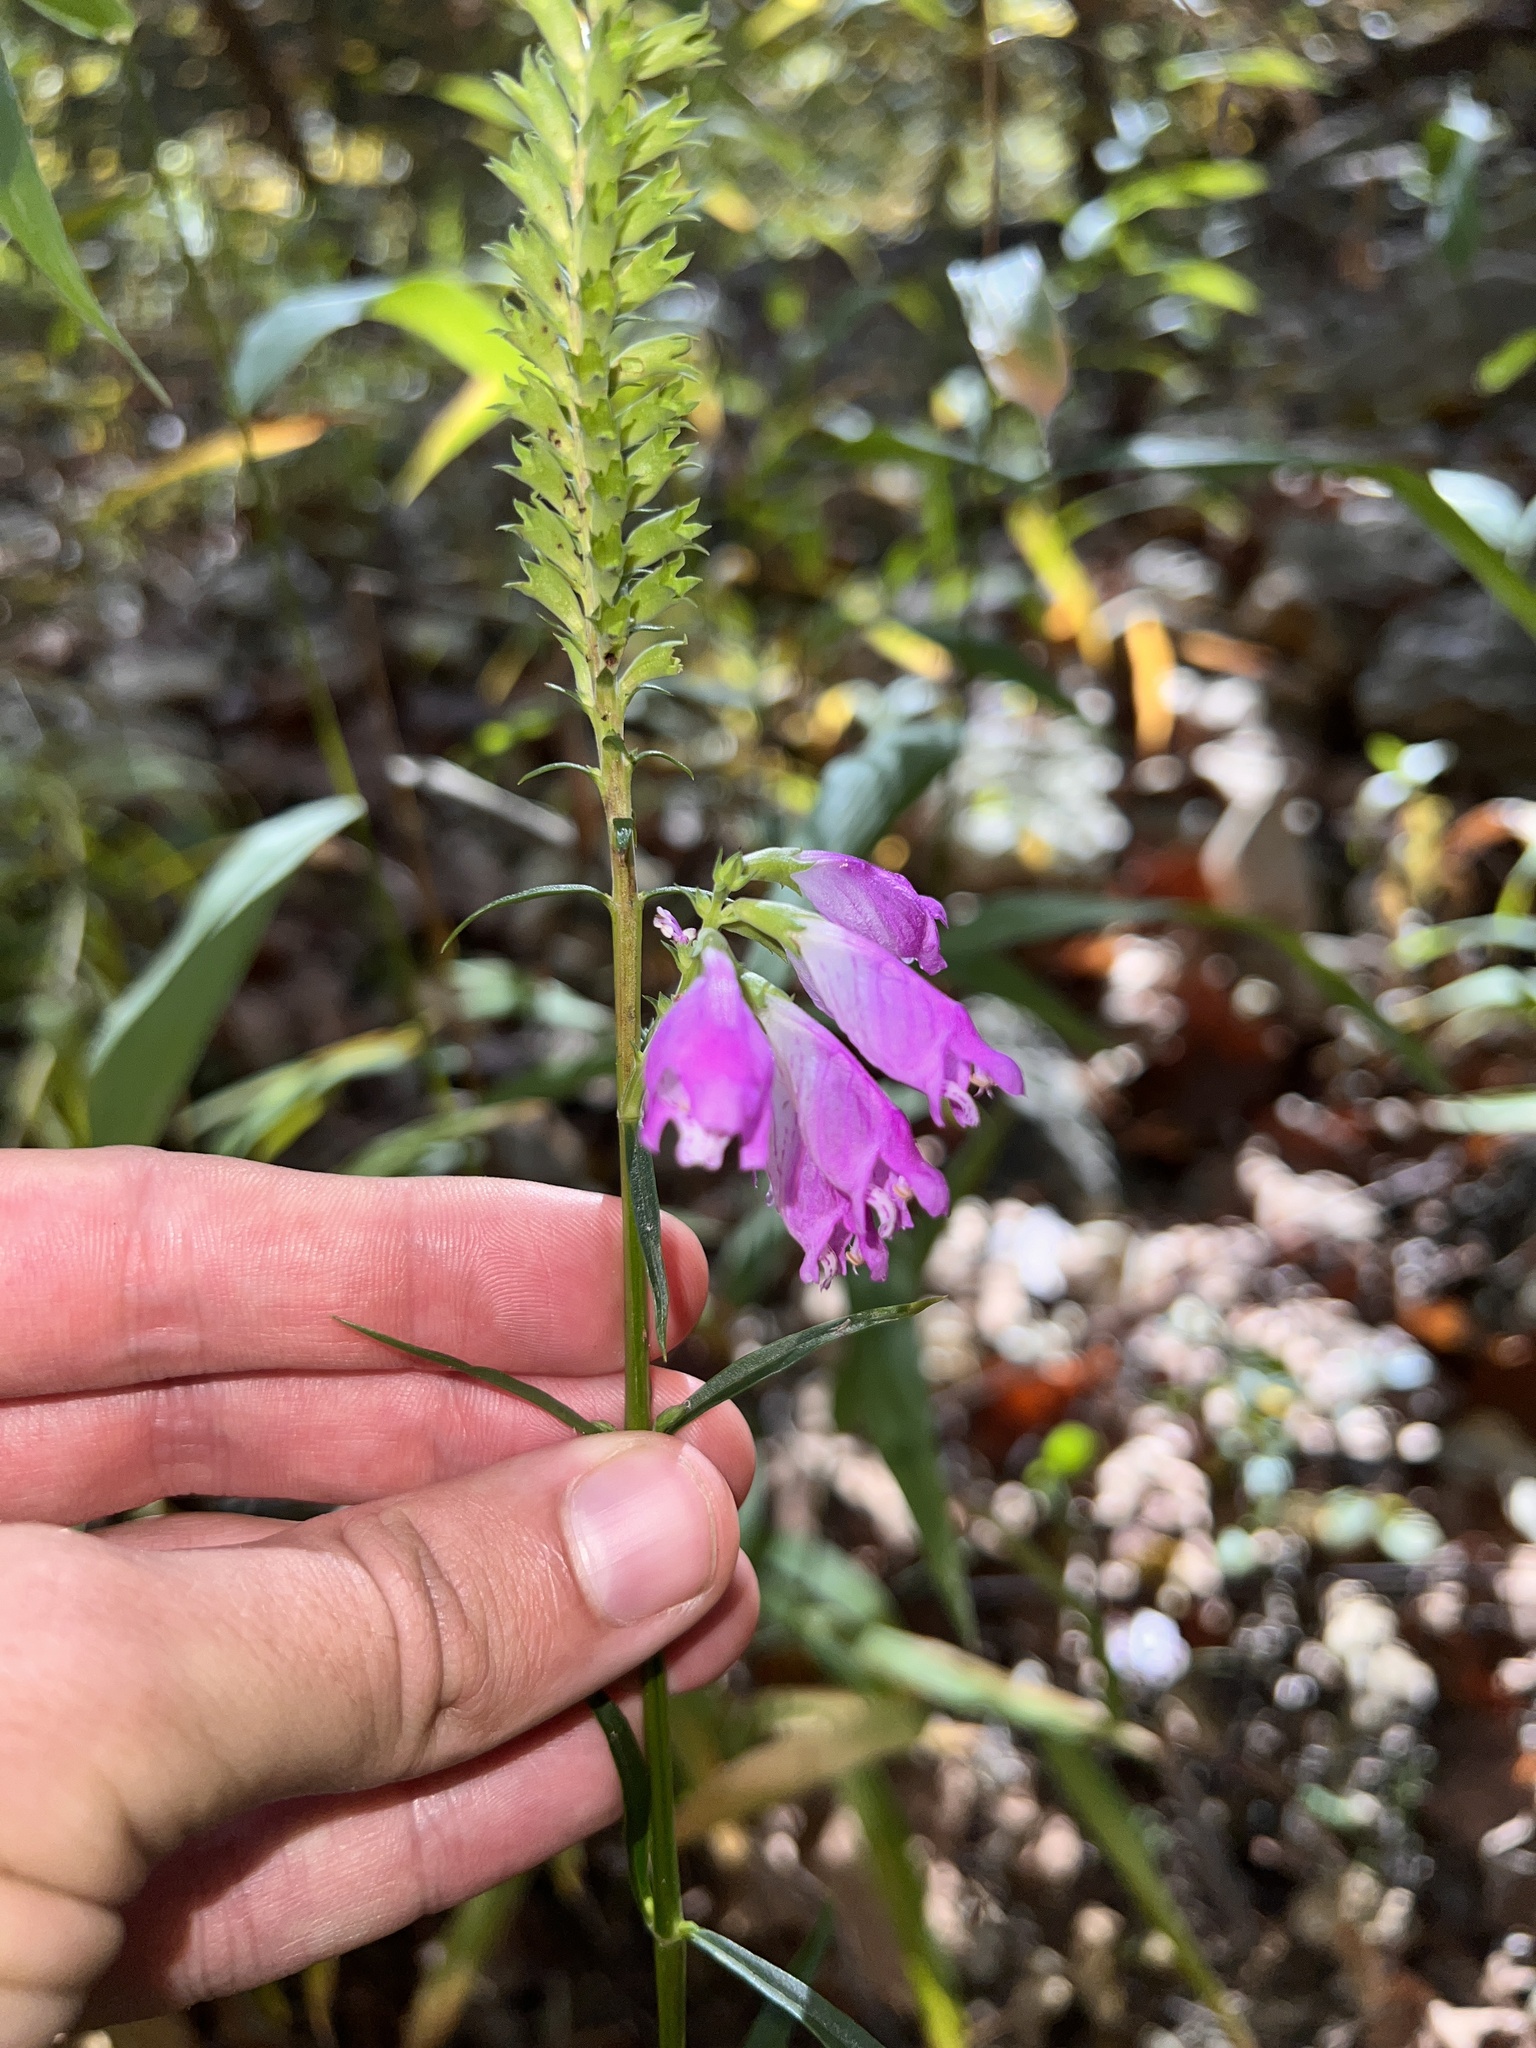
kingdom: Plantae
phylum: Tracheophyta
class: Magnoliopsida
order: Lamiales
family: Lamiaceae
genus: Physostegia
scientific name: Physostegia virginiana
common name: Obedient-plant
